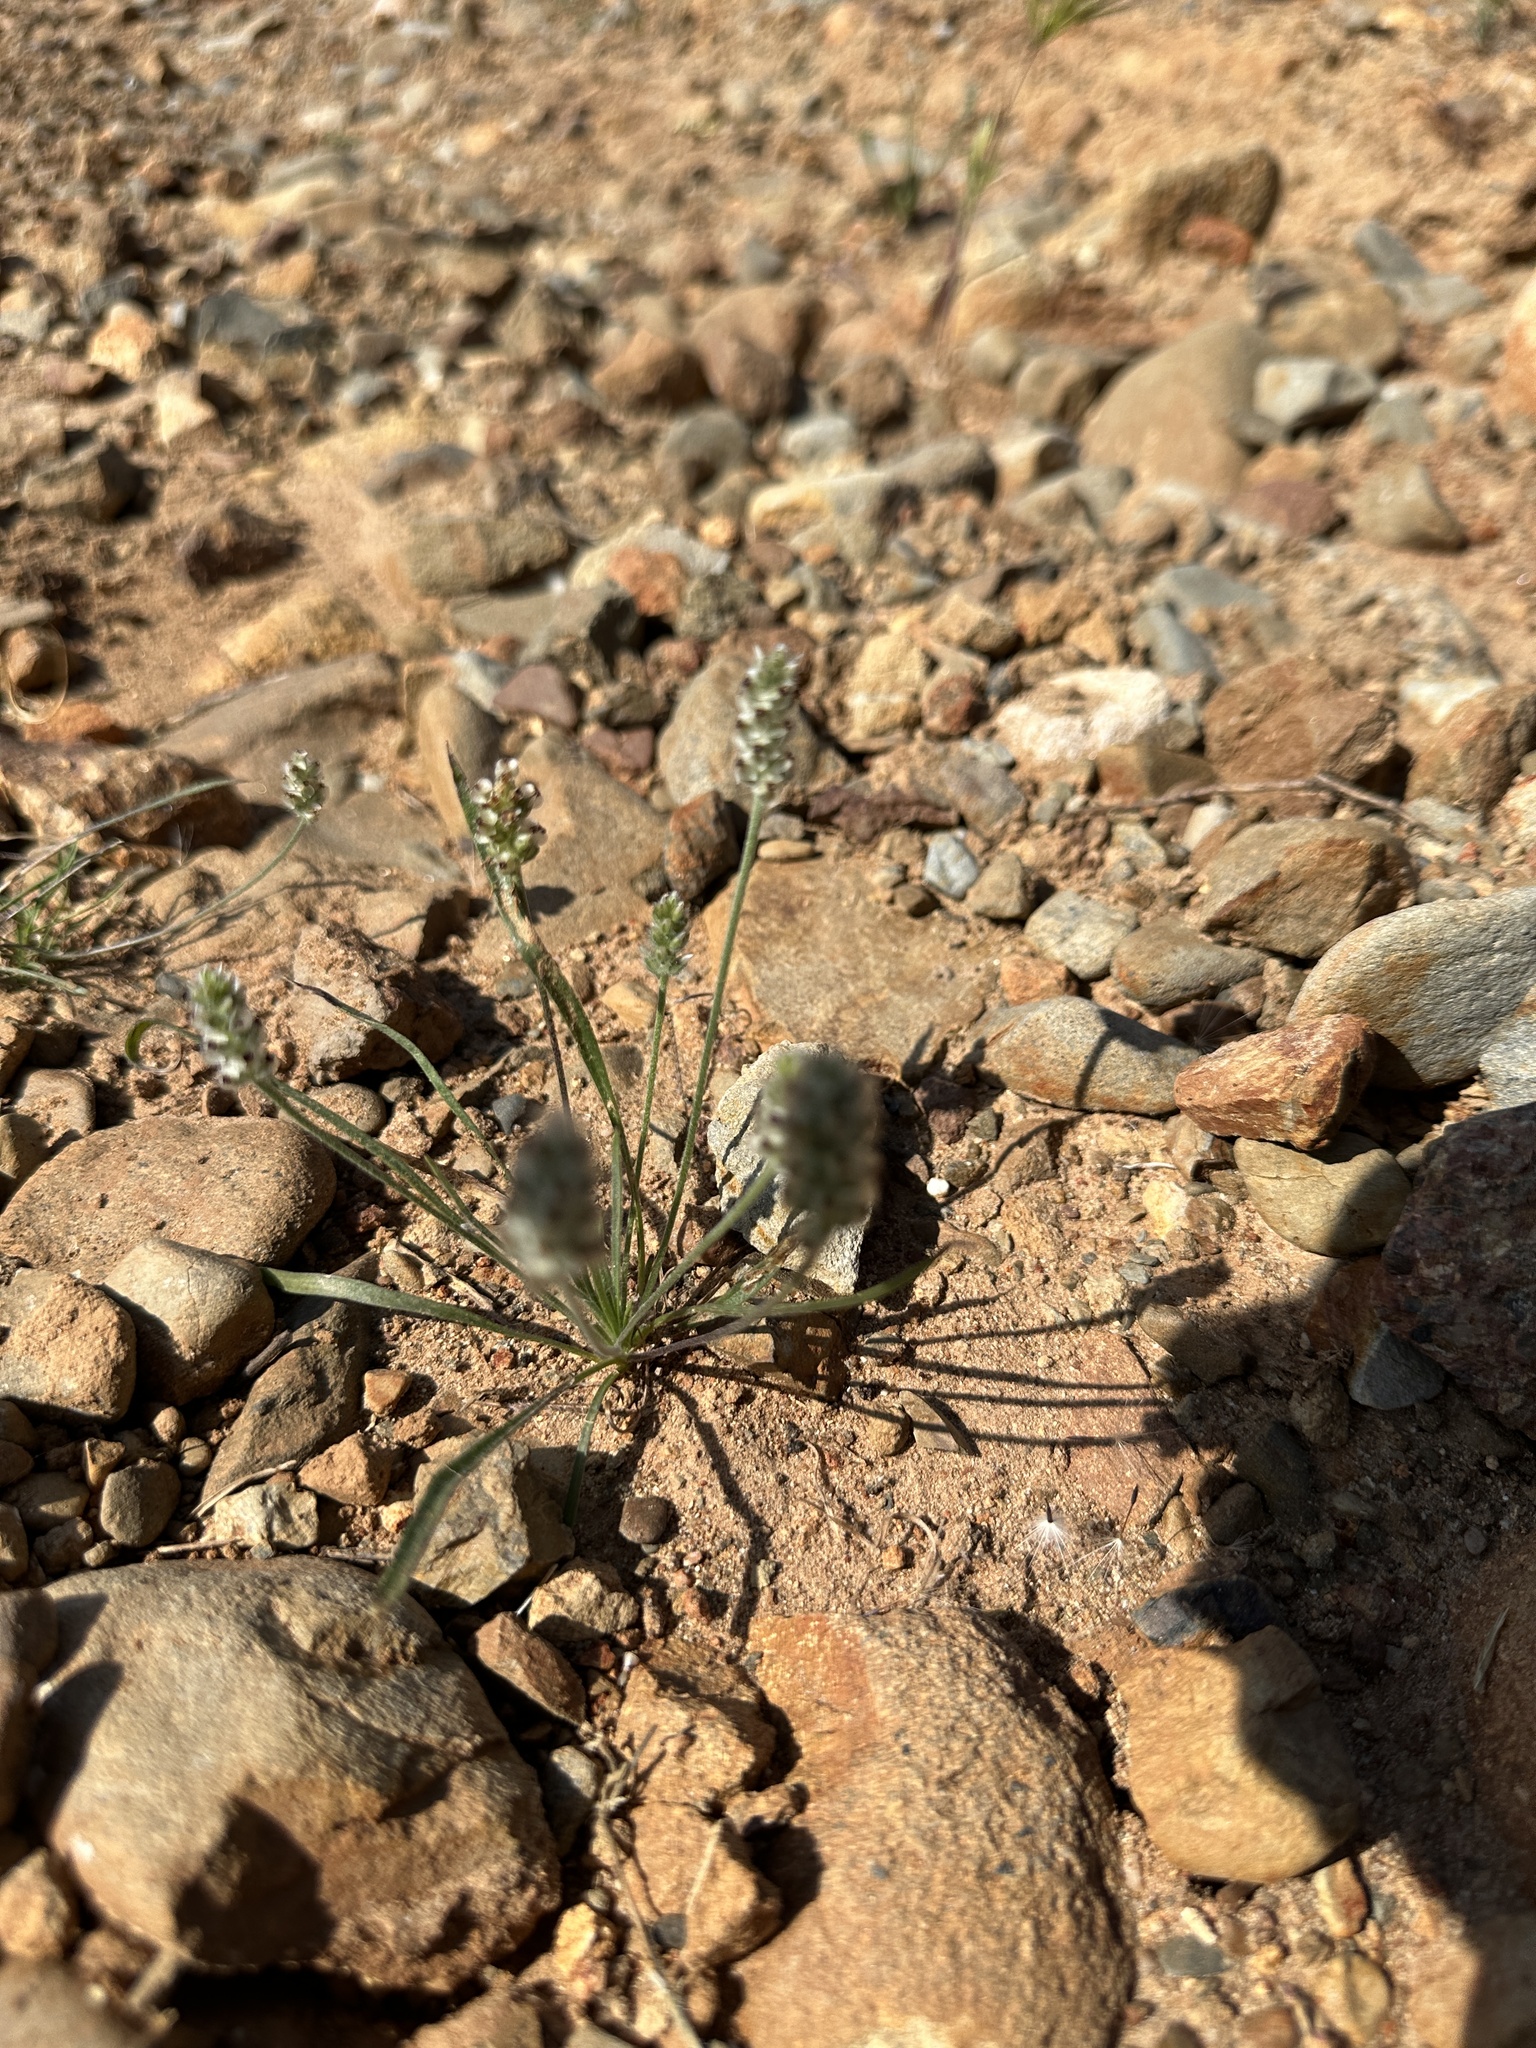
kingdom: Plantae
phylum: Tracheophyta
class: Magnoliopsida
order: Lamiales
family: Plantaginaceae
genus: Plantago
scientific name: Plantago erecta
